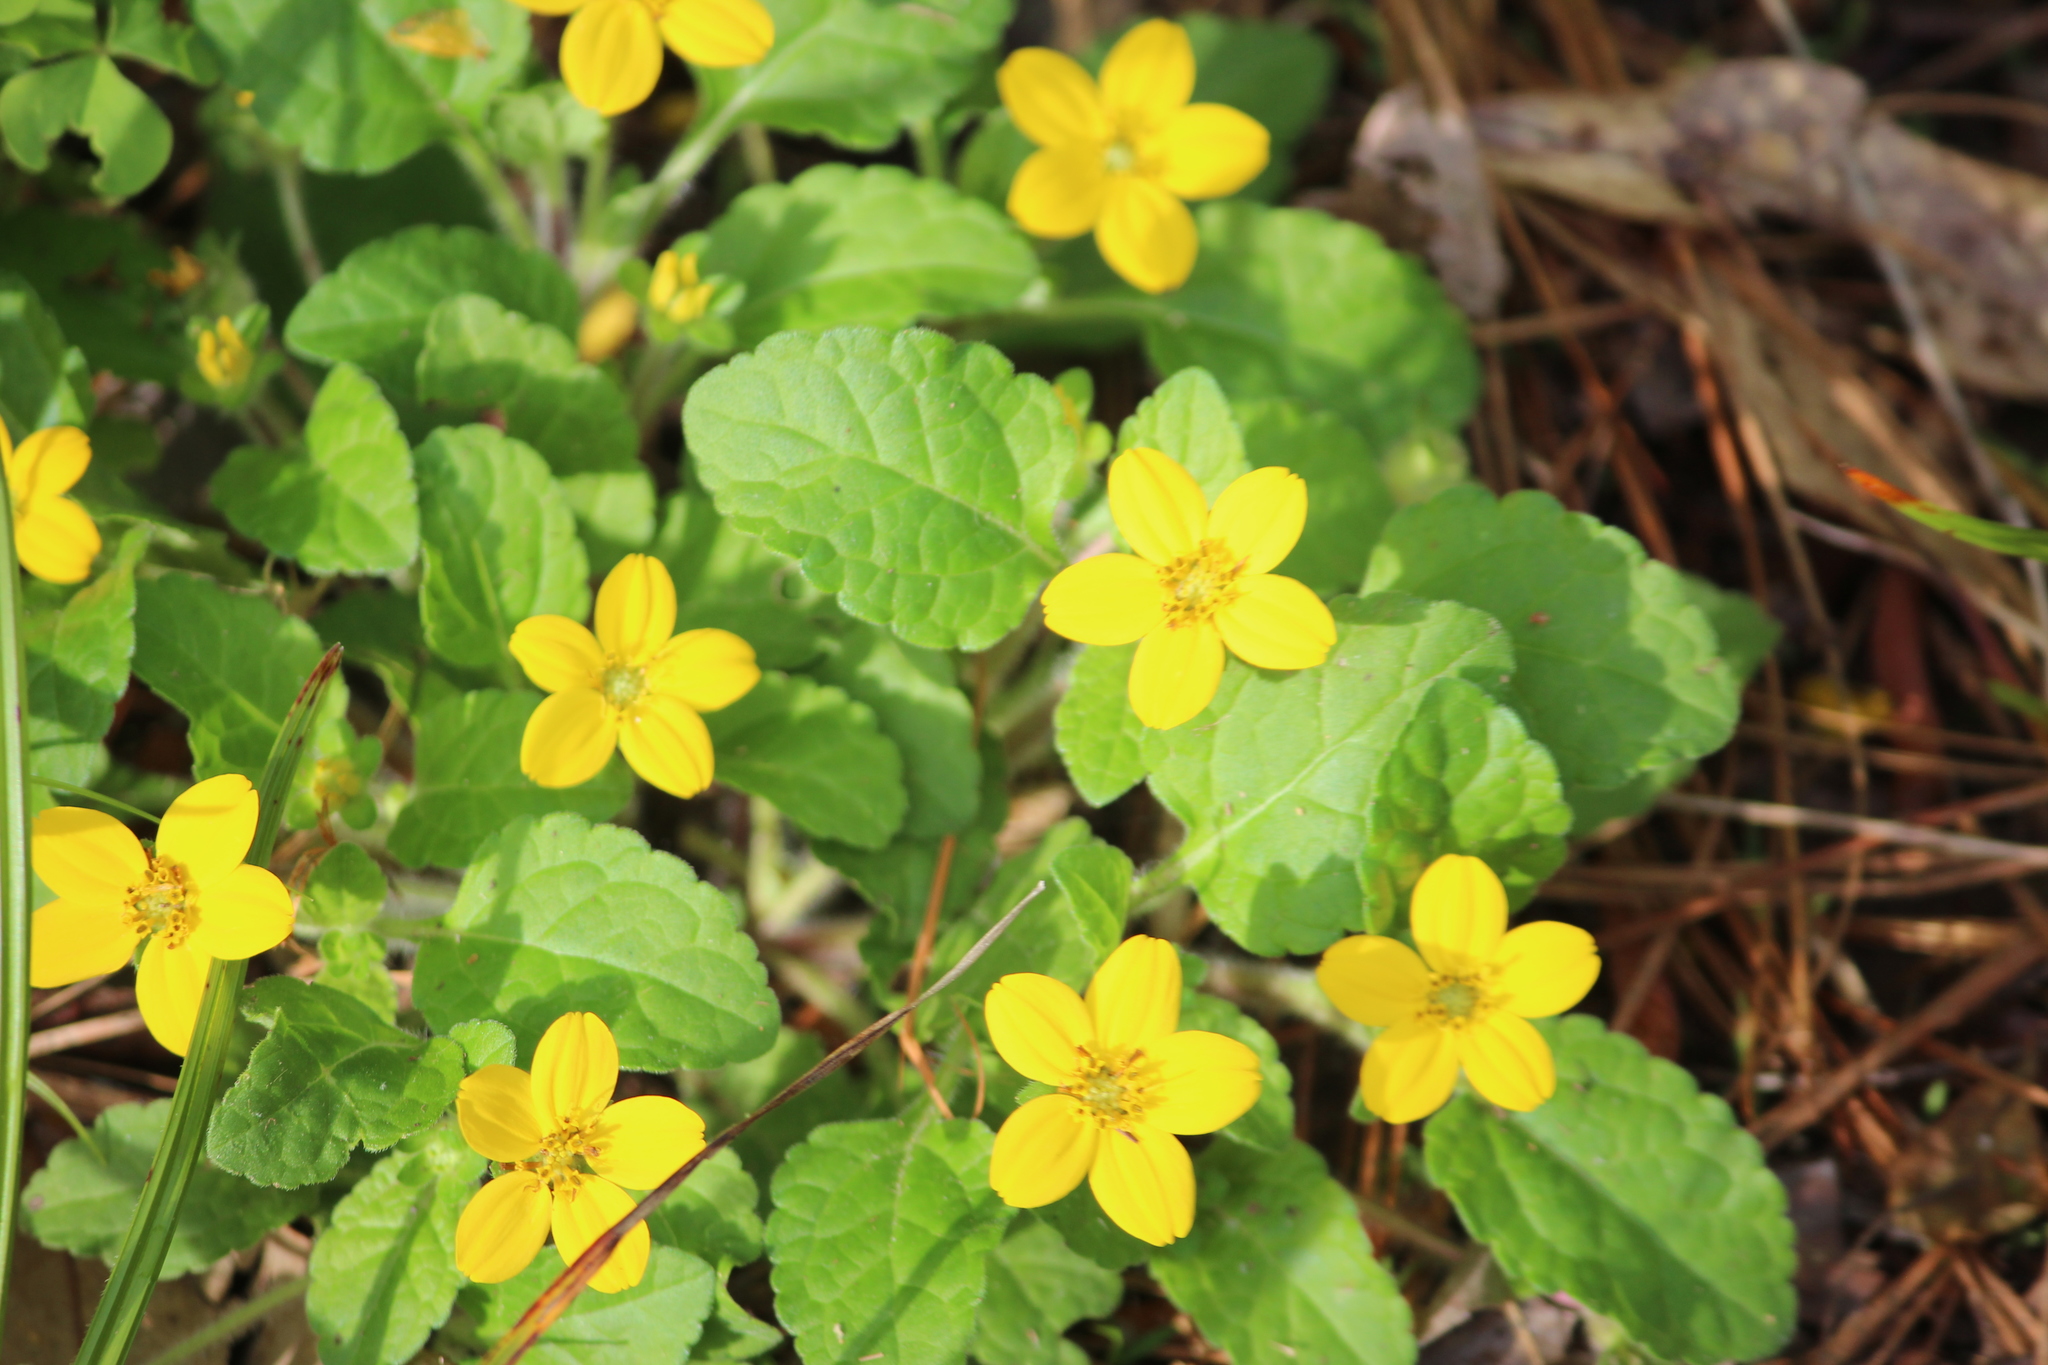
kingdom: Plantae
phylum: Tracheophyta
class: Magnoliopsida
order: Asterales
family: Asteraceae
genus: Chrysogonum
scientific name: Chrysogonum virginianum
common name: Golden-knee
